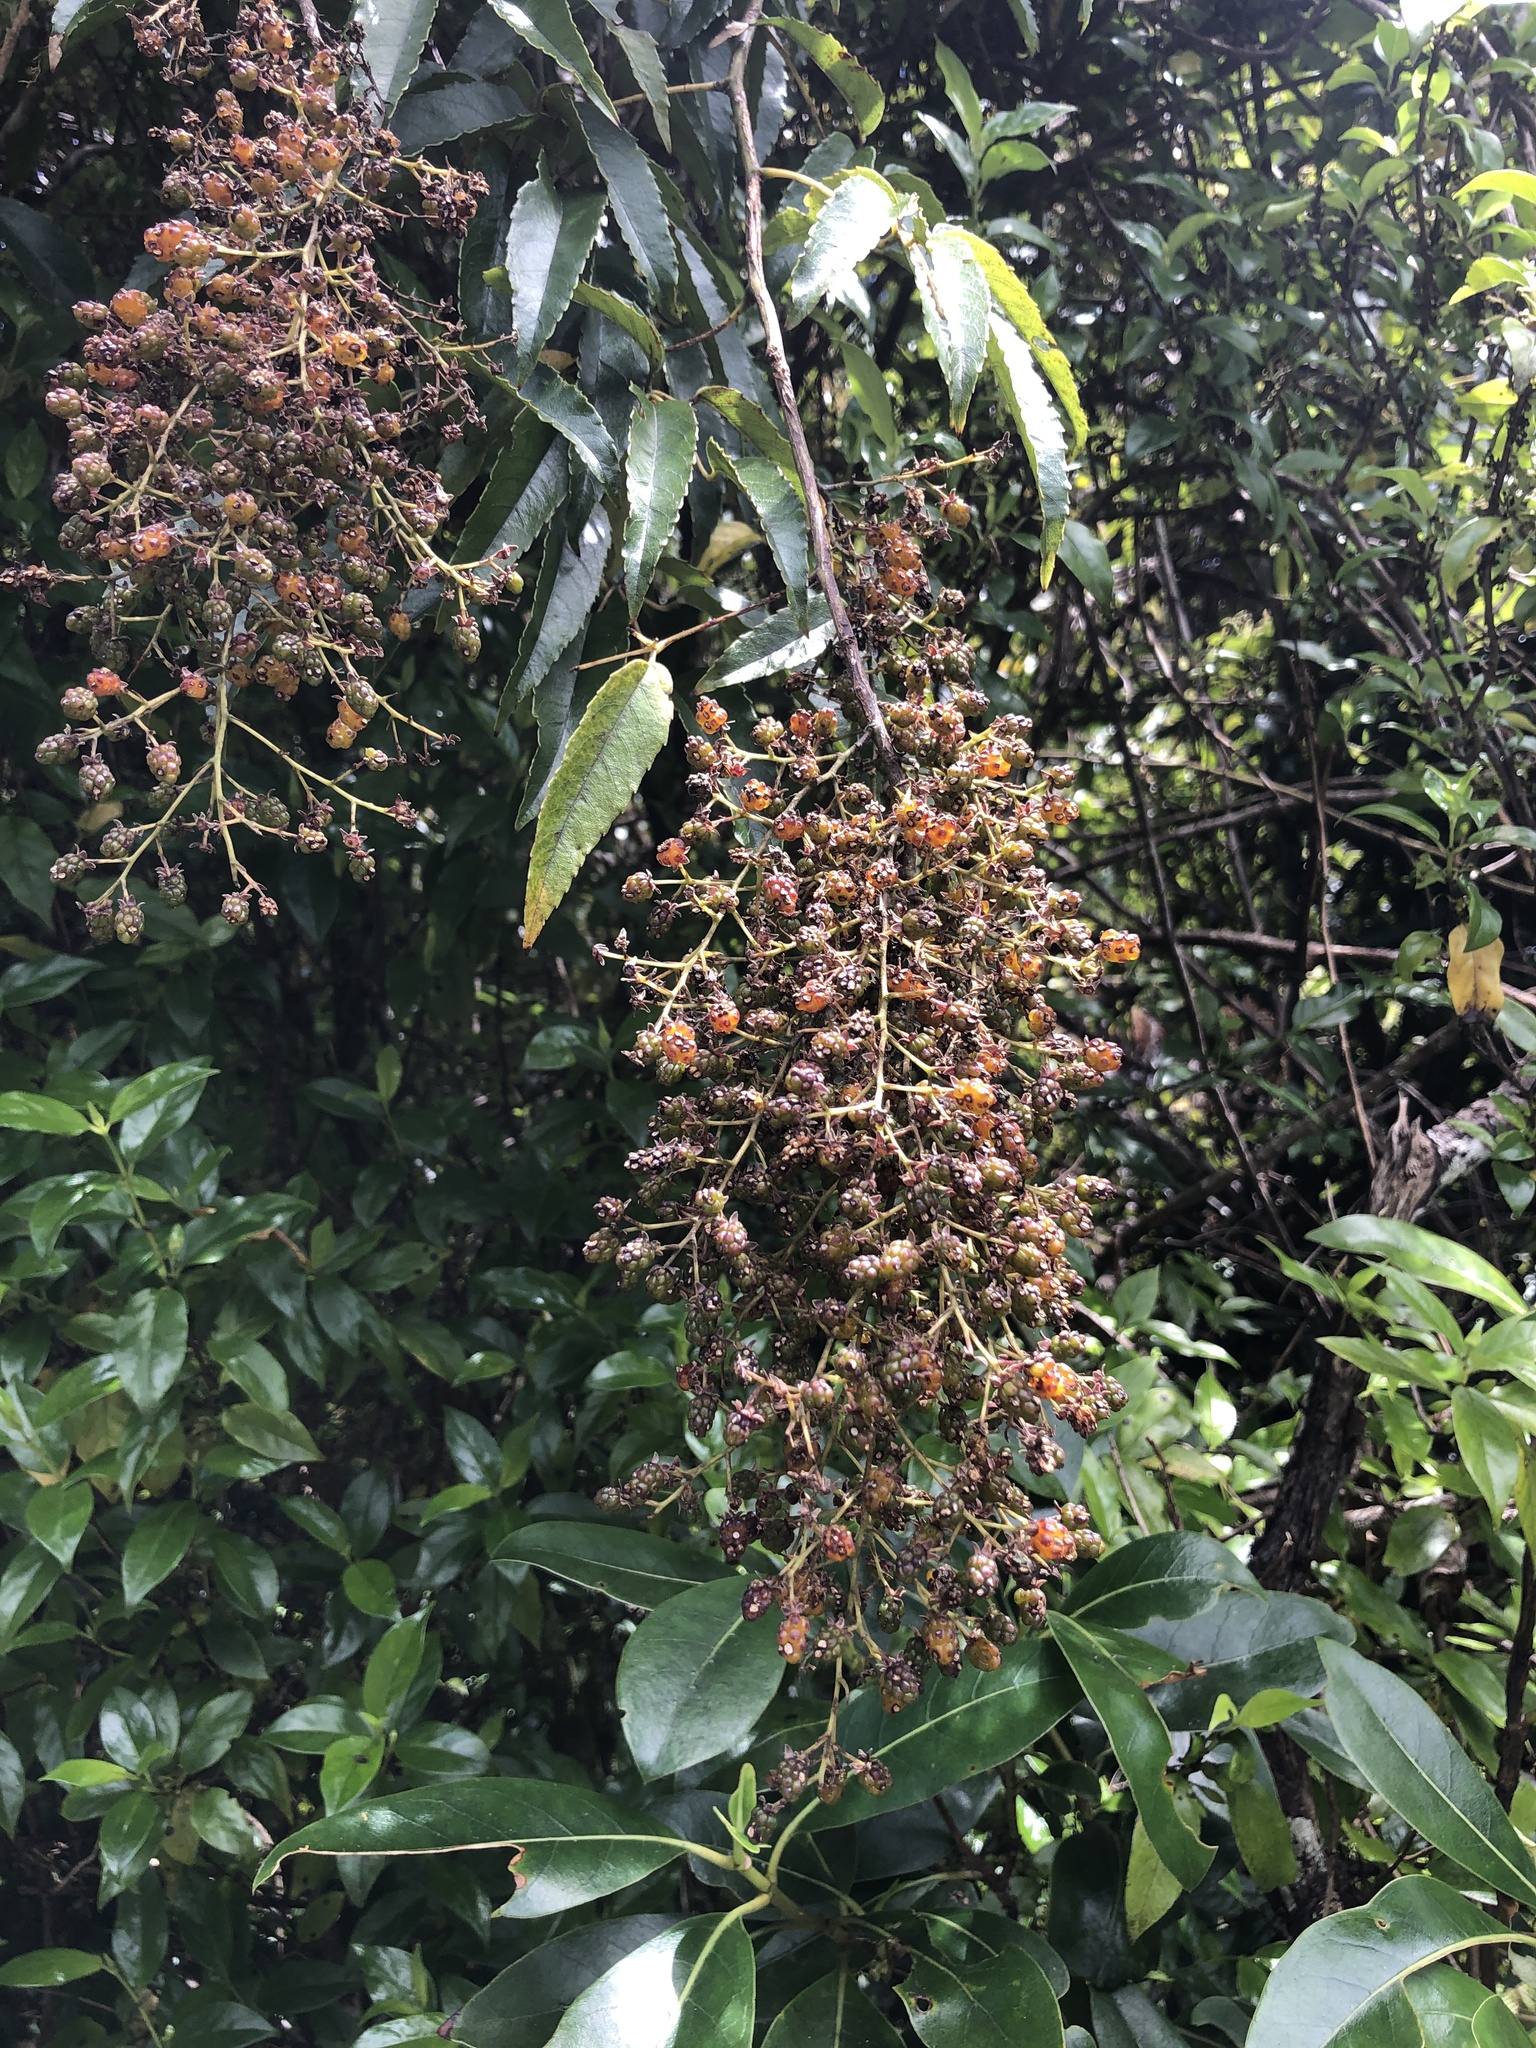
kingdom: Plantae
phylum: Tracheophyta
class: Magnoliopsida
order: Rosales
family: Rosaceae
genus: Rubus
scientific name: Rubus cissoides
